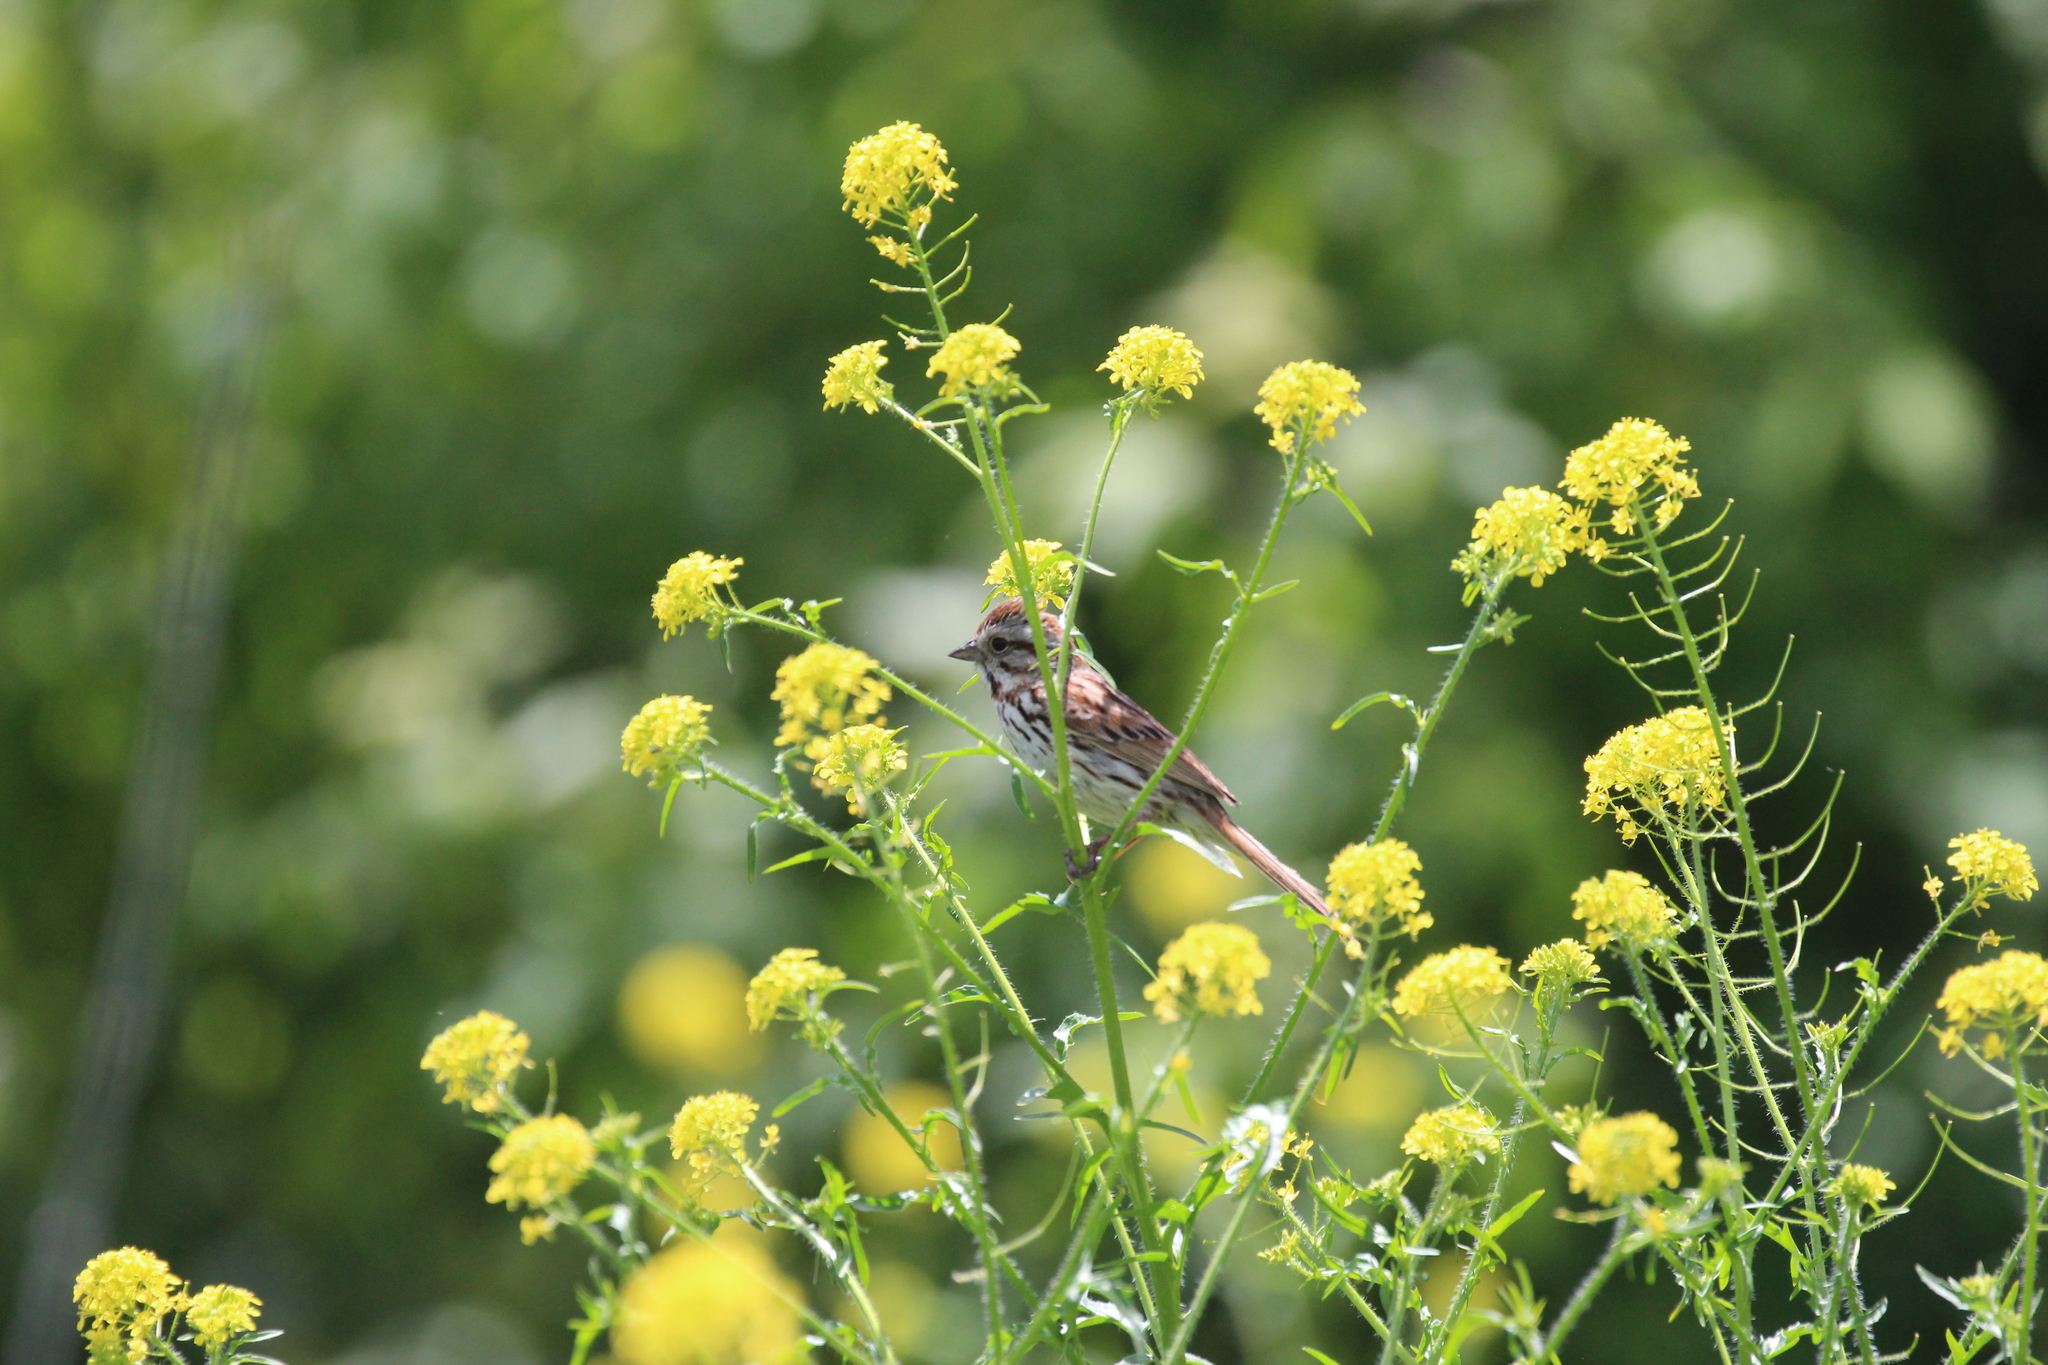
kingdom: Animalia
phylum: Chordata
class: Aves
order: Passeriformes
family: Passerellidae
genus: Melospiza
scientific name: Melospiza melodia
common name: Song sparrow
